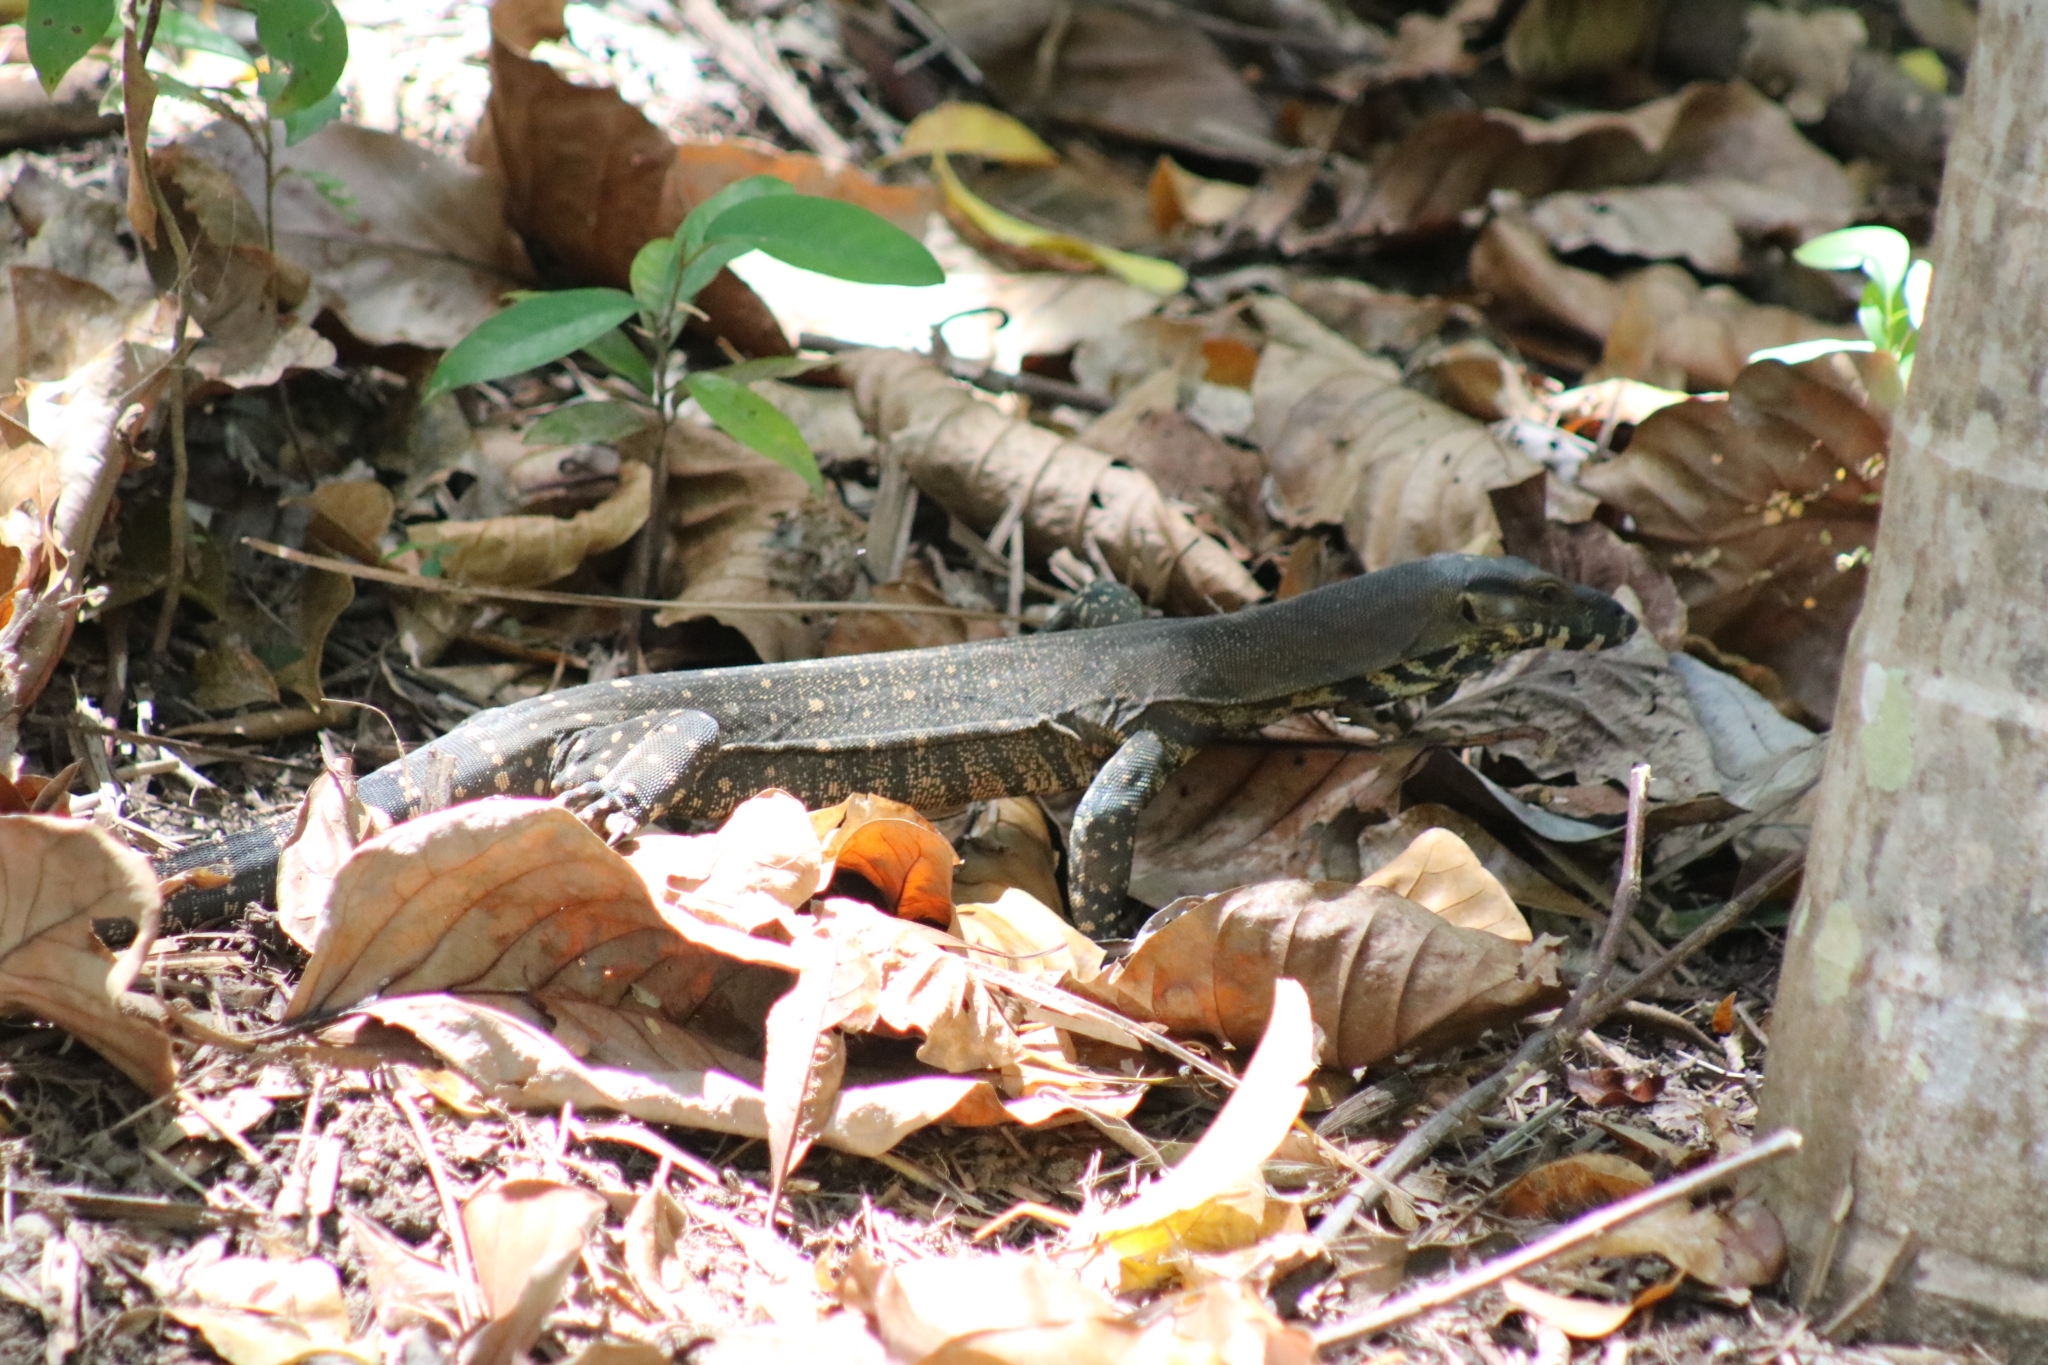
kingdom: Animalia
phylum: Chordata
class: Squamata
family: Varanidae
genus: Varanus
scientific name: Varanus varius
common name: Lace monitor
